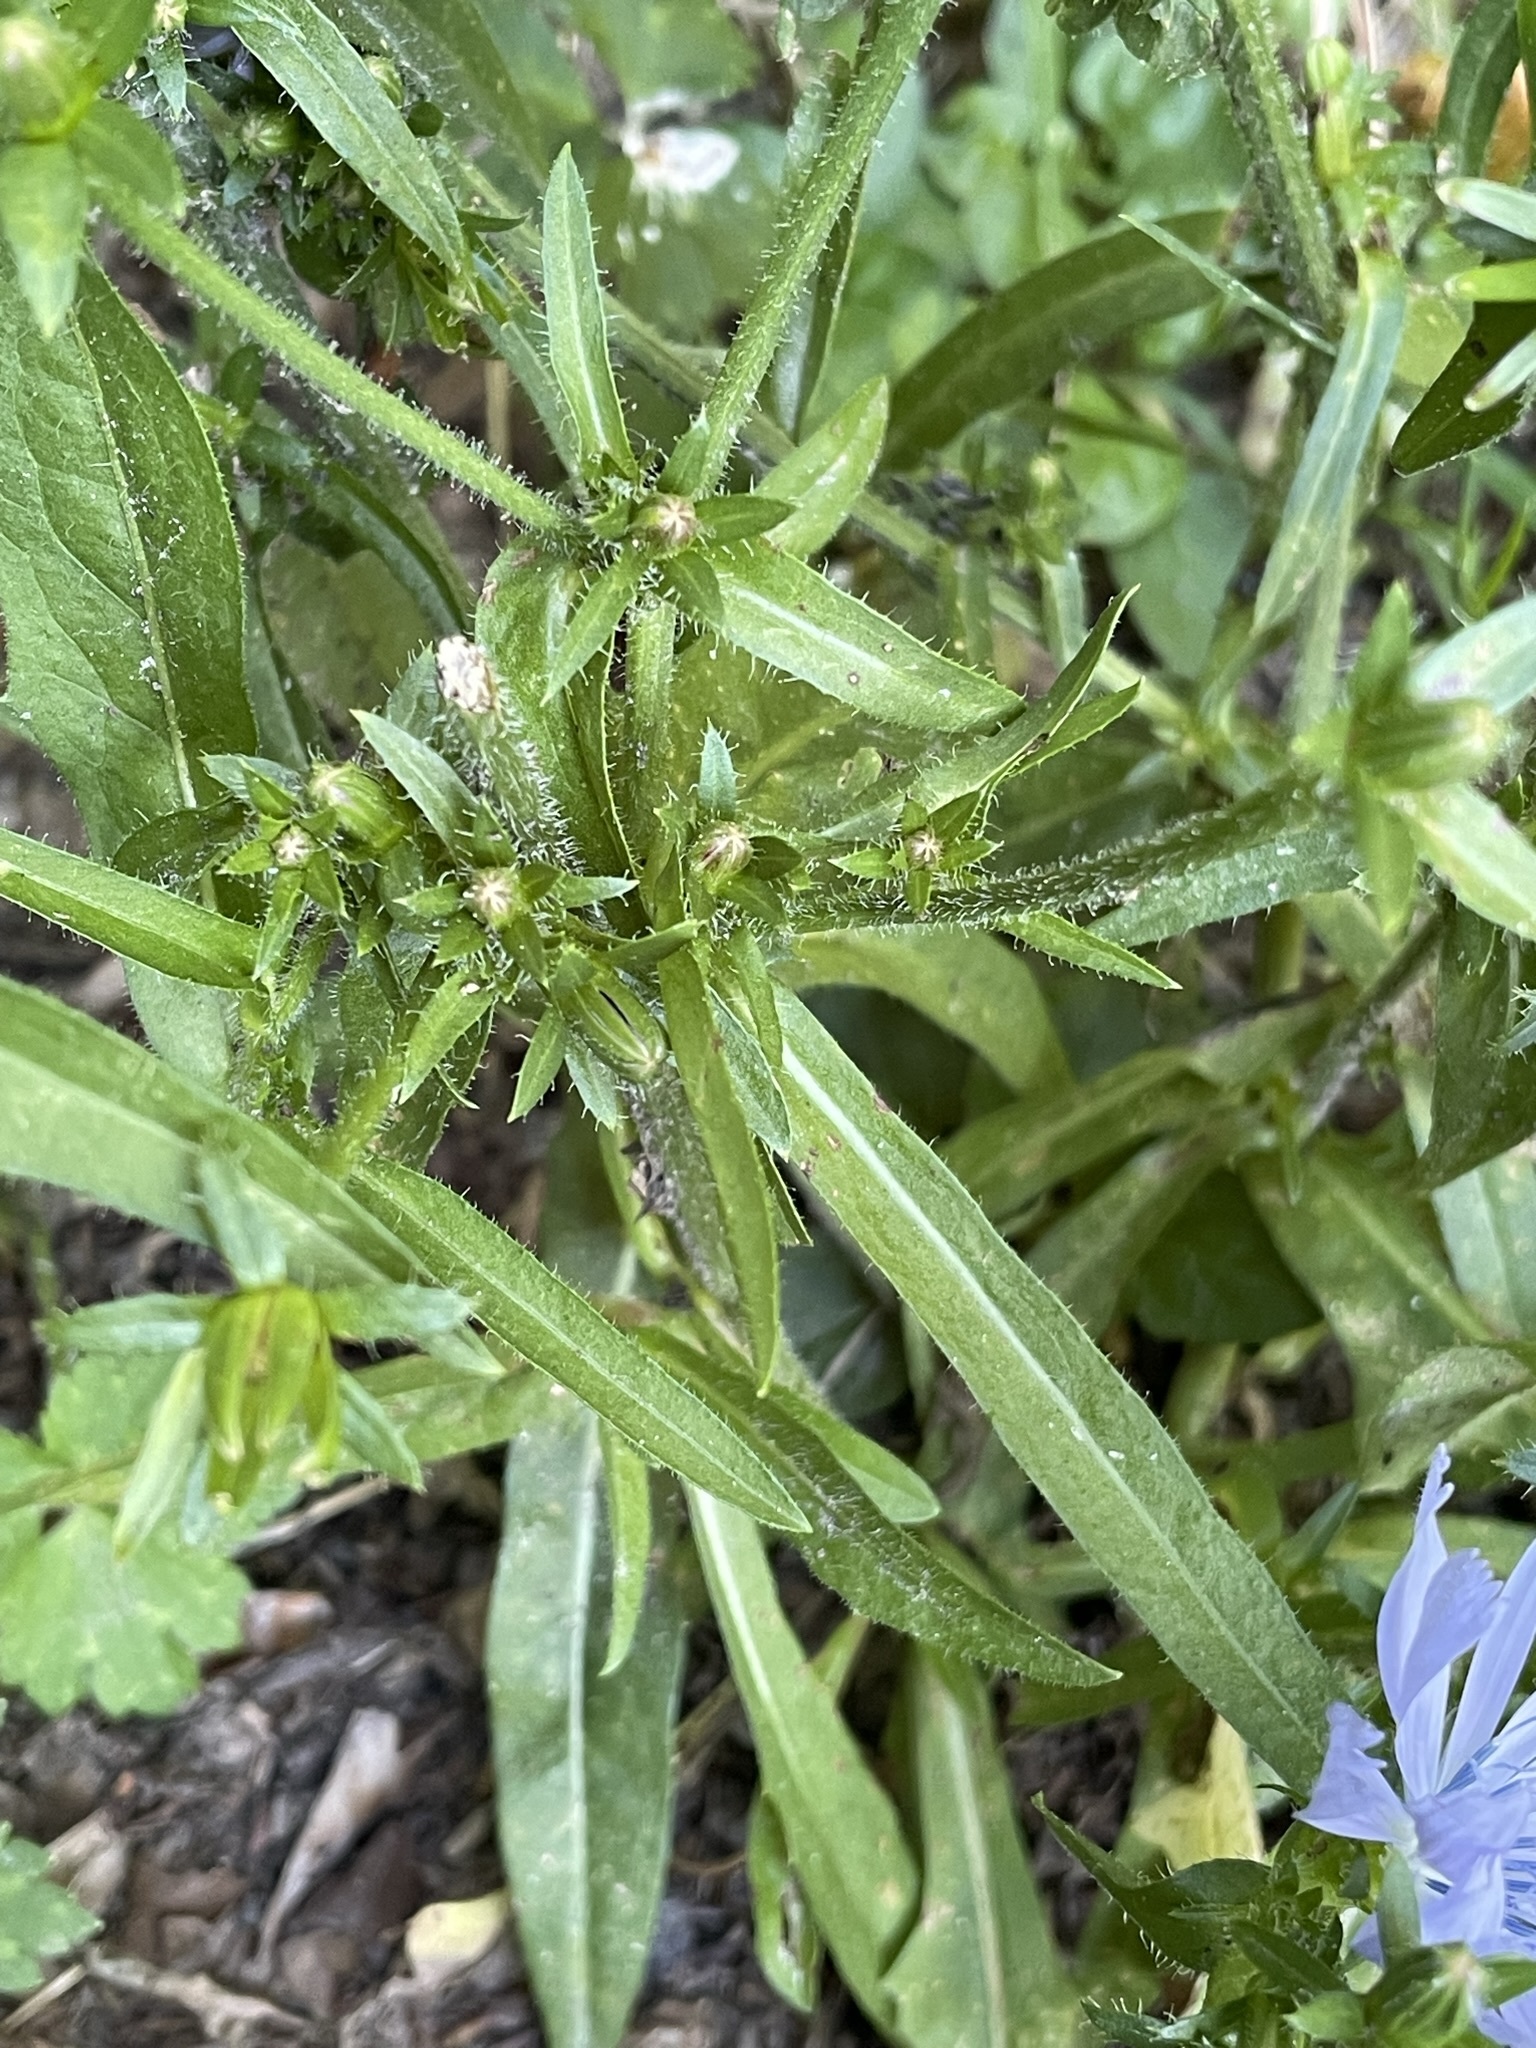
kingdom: Plantae
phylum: Tracheophyta
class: Magnoliopsida
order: Asterales
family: Asteraceae
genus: Cichorium
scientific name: Cichorium intybus
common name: Chicory
